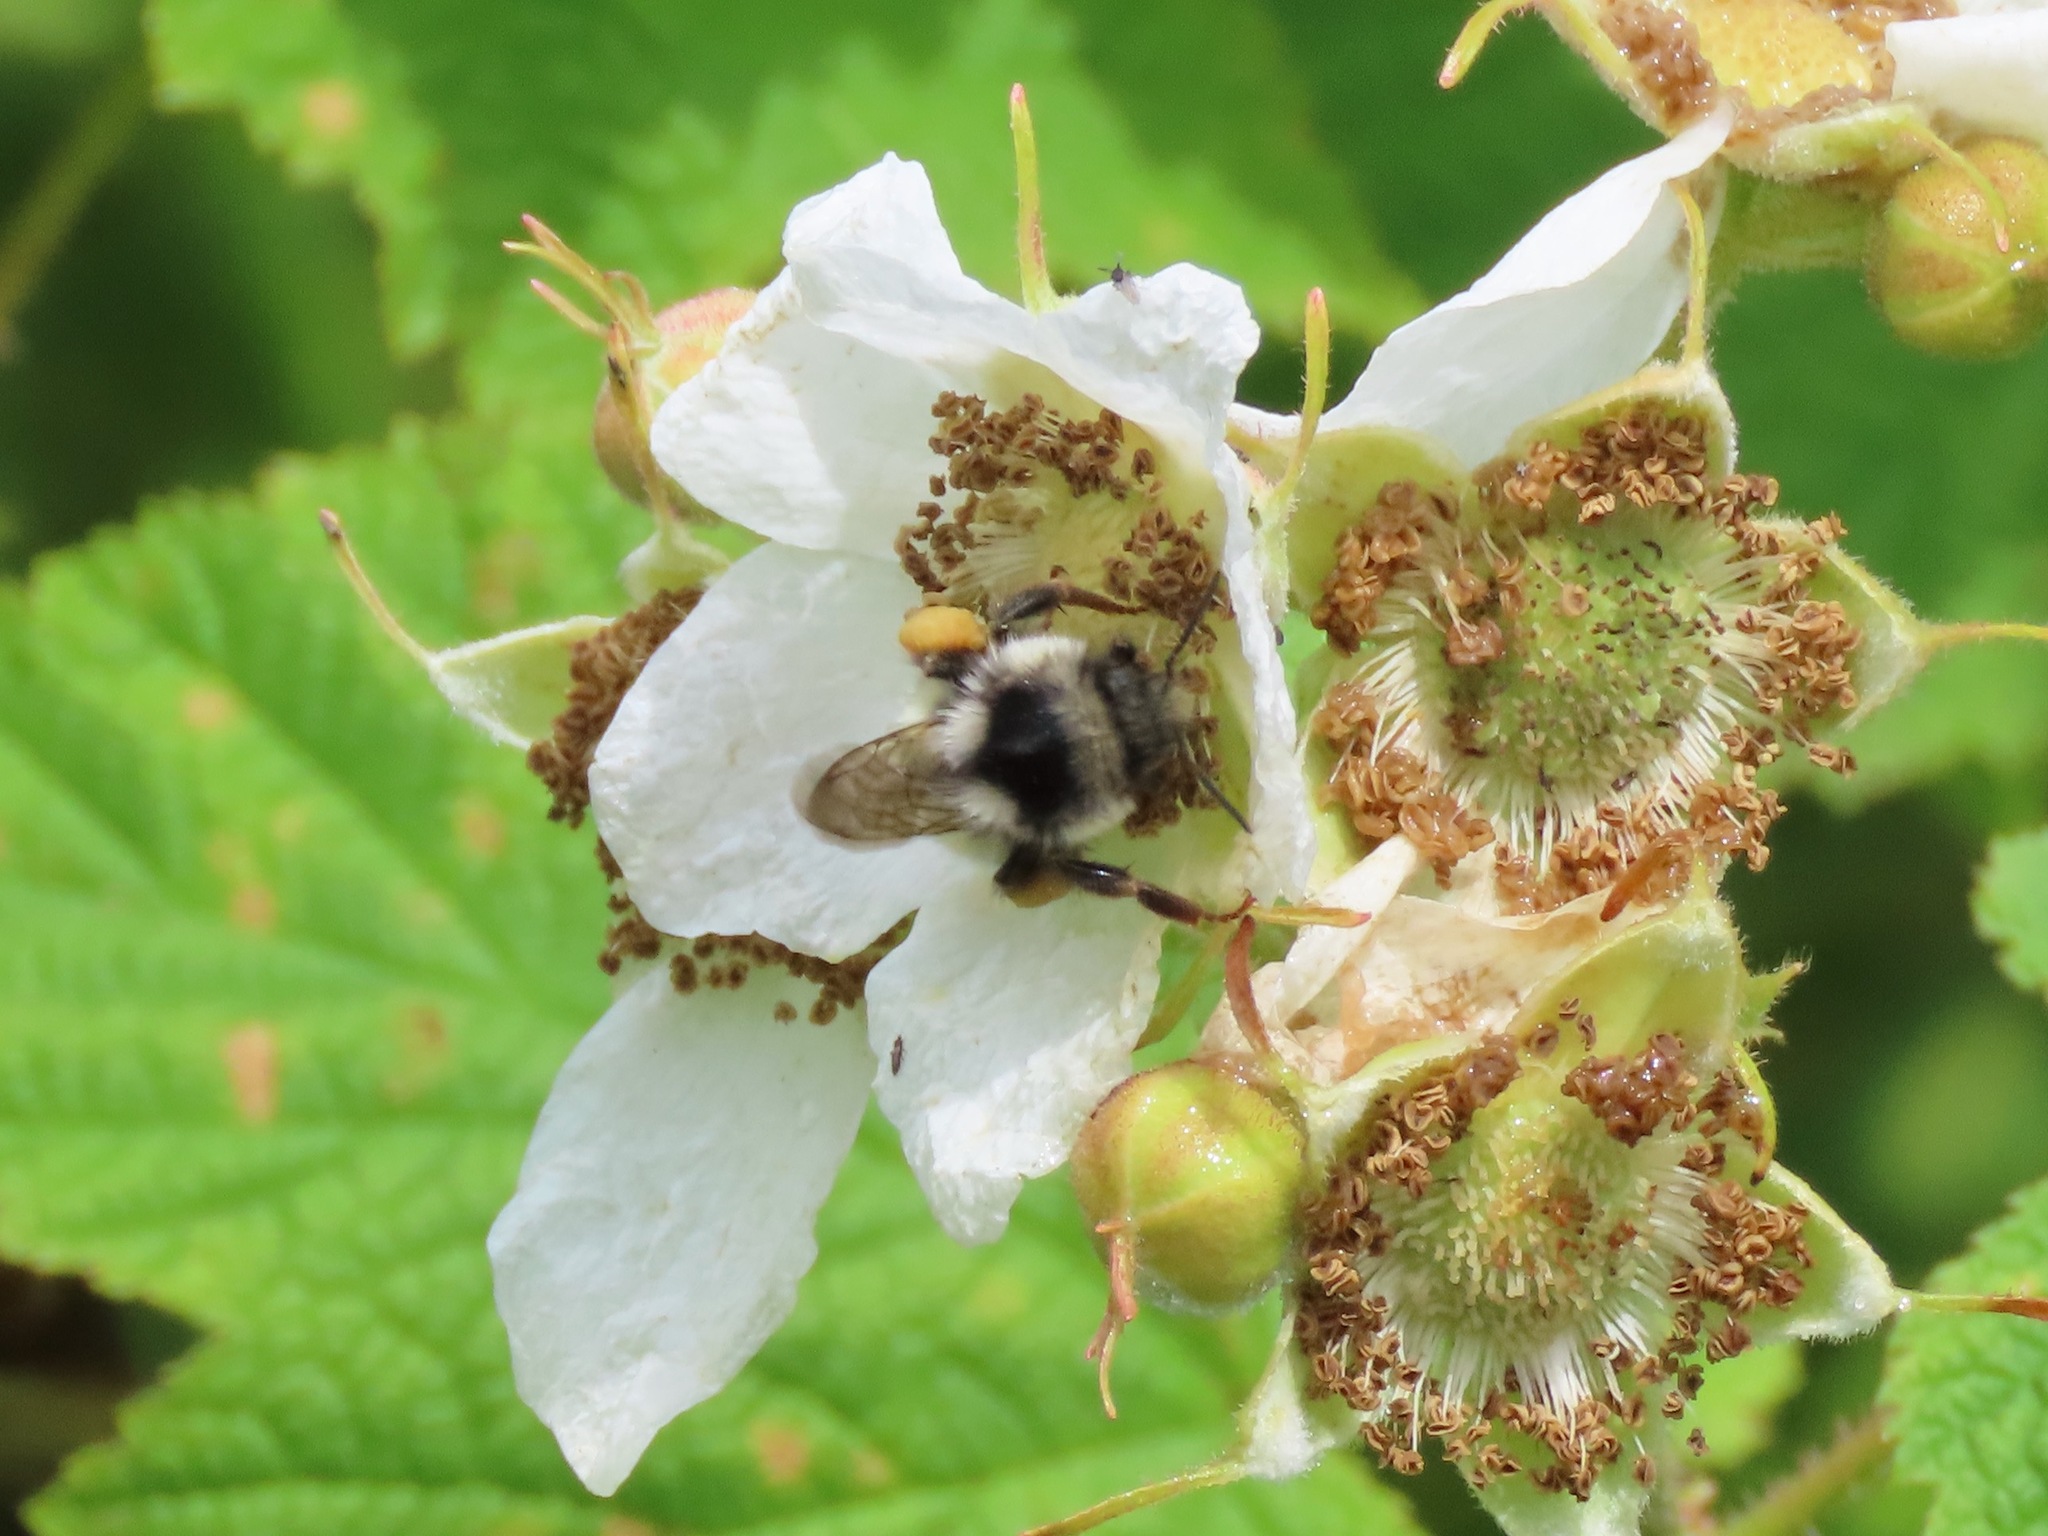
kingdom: Animalia
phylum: Arthropoda
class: Insecta
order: Hymenoptera
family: Apidae
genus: Bombus
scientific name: Bombus vancouverensis
